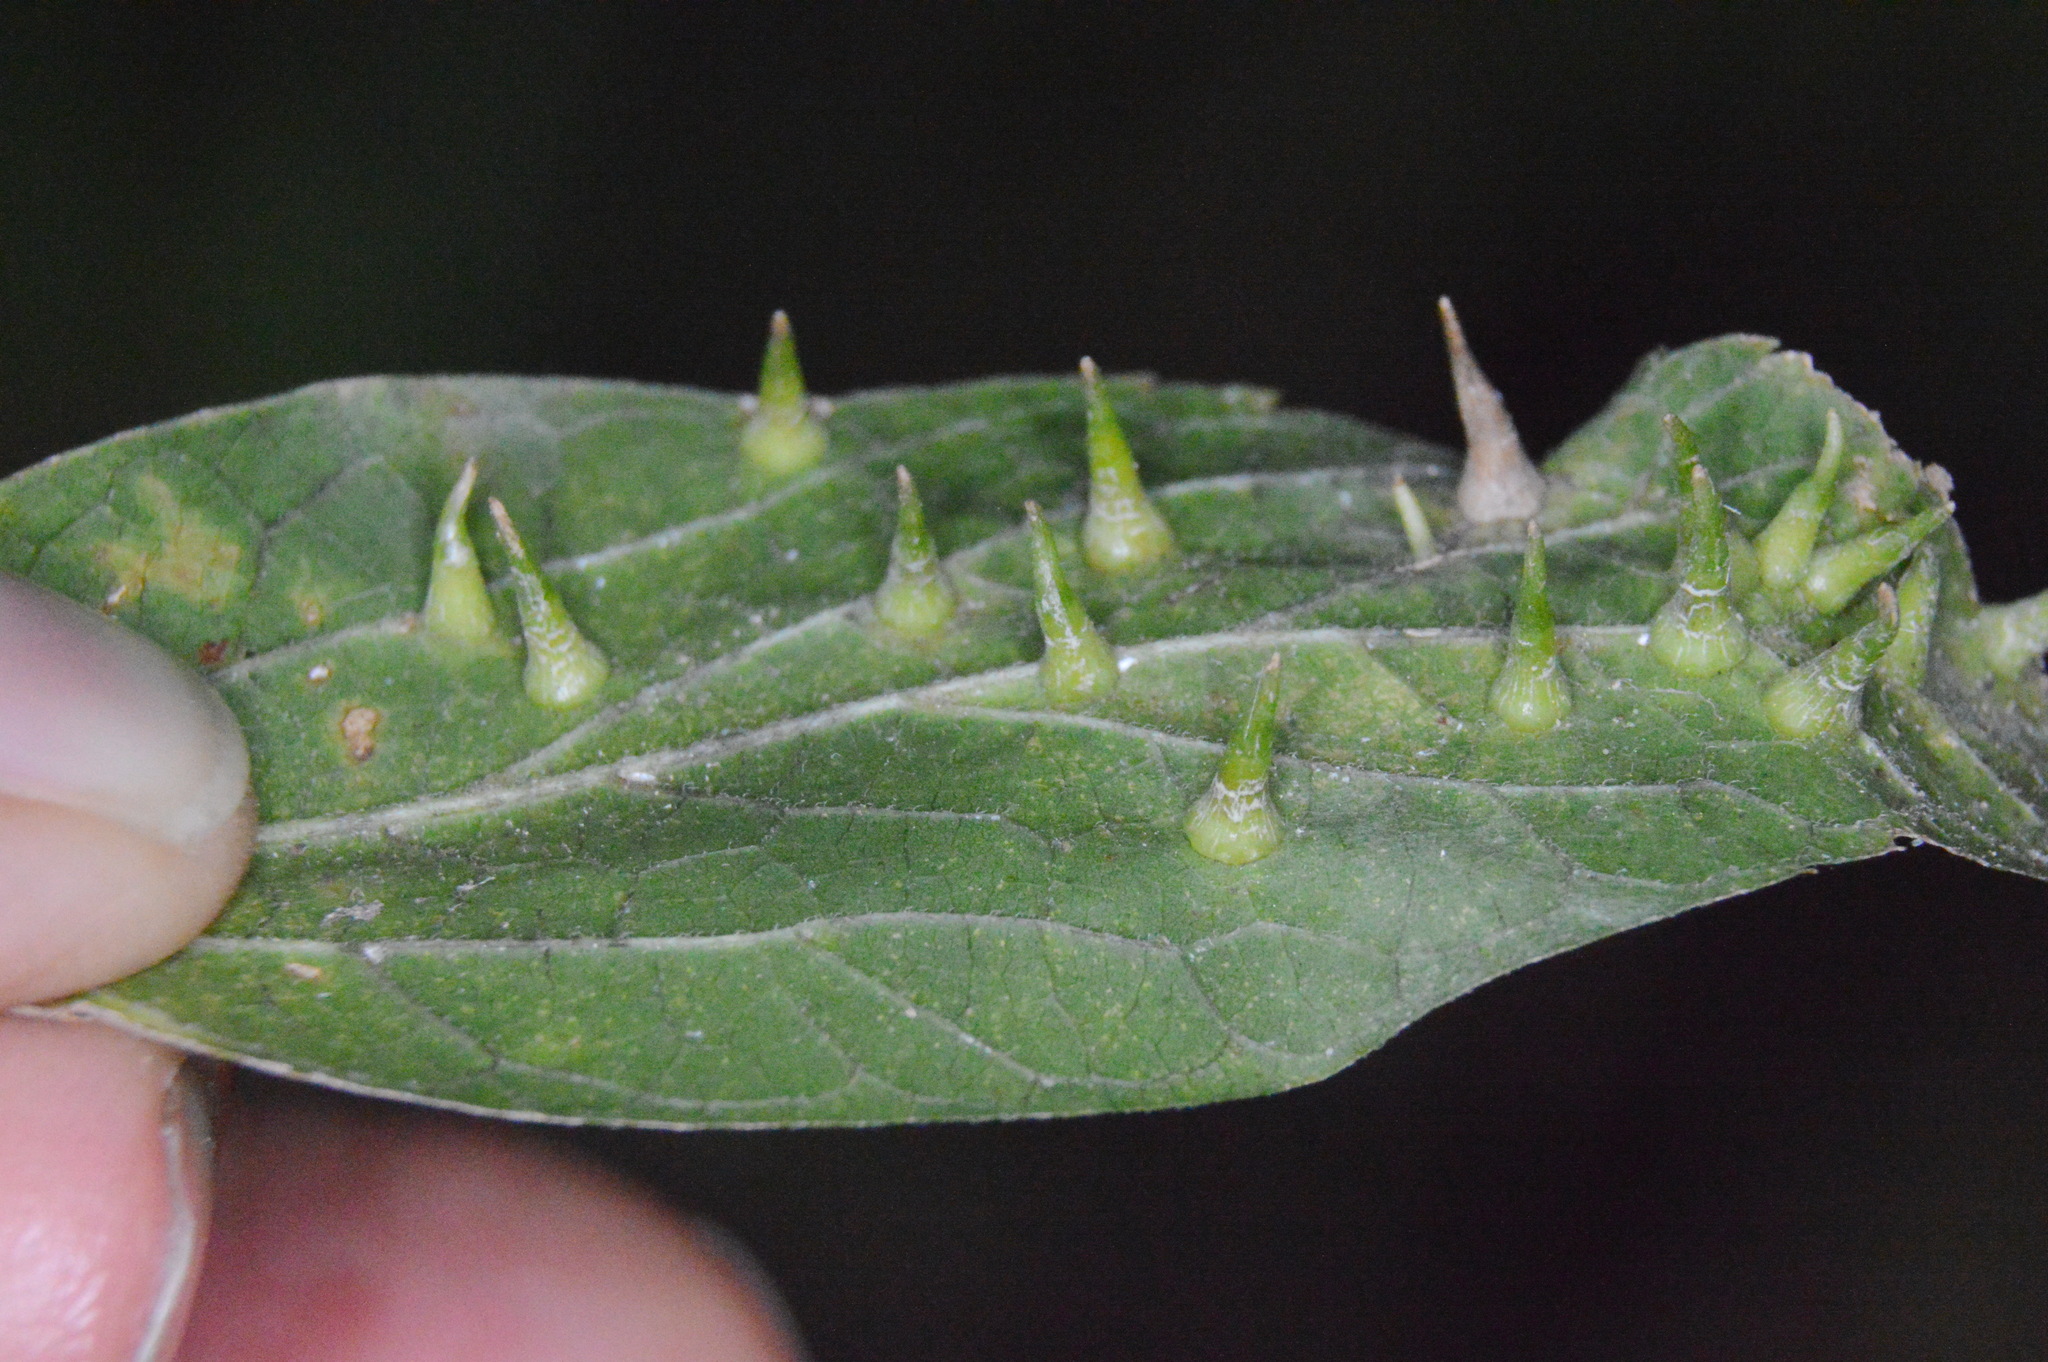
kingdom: Animalia
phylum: Arthropoda
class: Insecta
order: Diptera
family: Cecidomyiidae
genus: Celticecis
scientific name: Celticecis subulata
